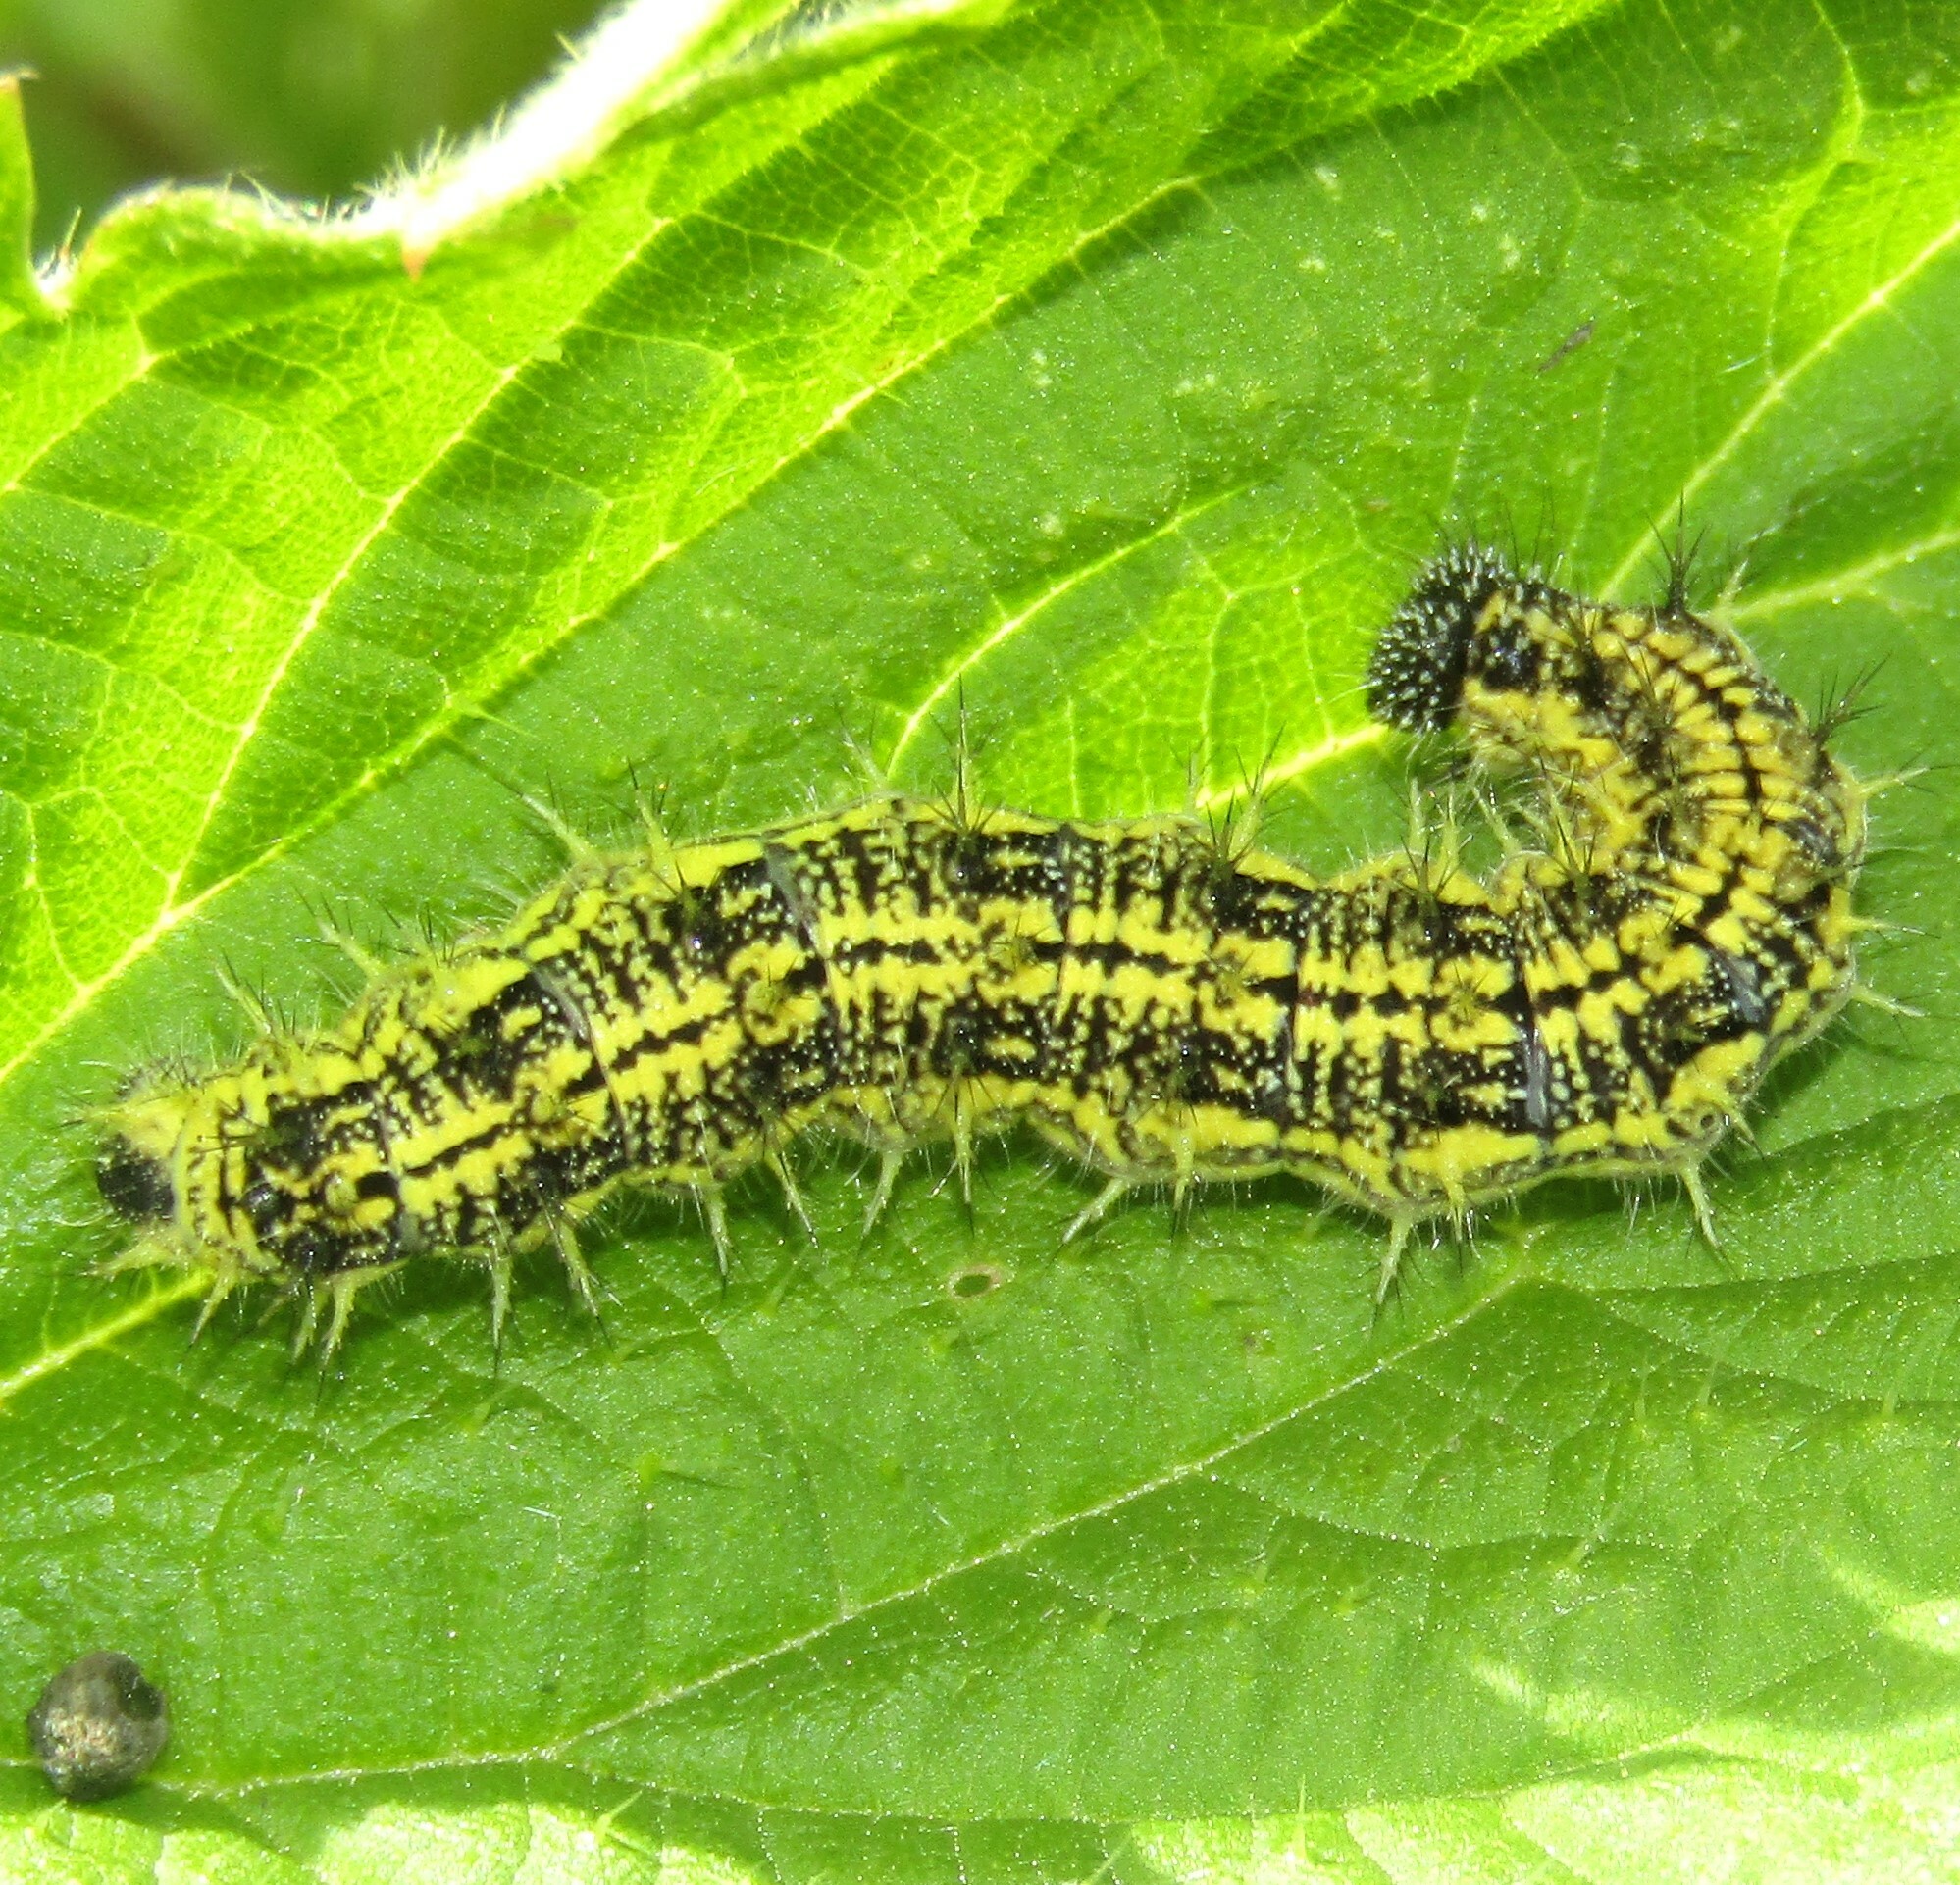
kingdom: Animalia
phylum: Arthropoda
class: Insecta
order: Lepidoptera
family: Nymphalidae
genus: Aglais
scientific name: Aglais urticae
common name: Small tortoiseshell
